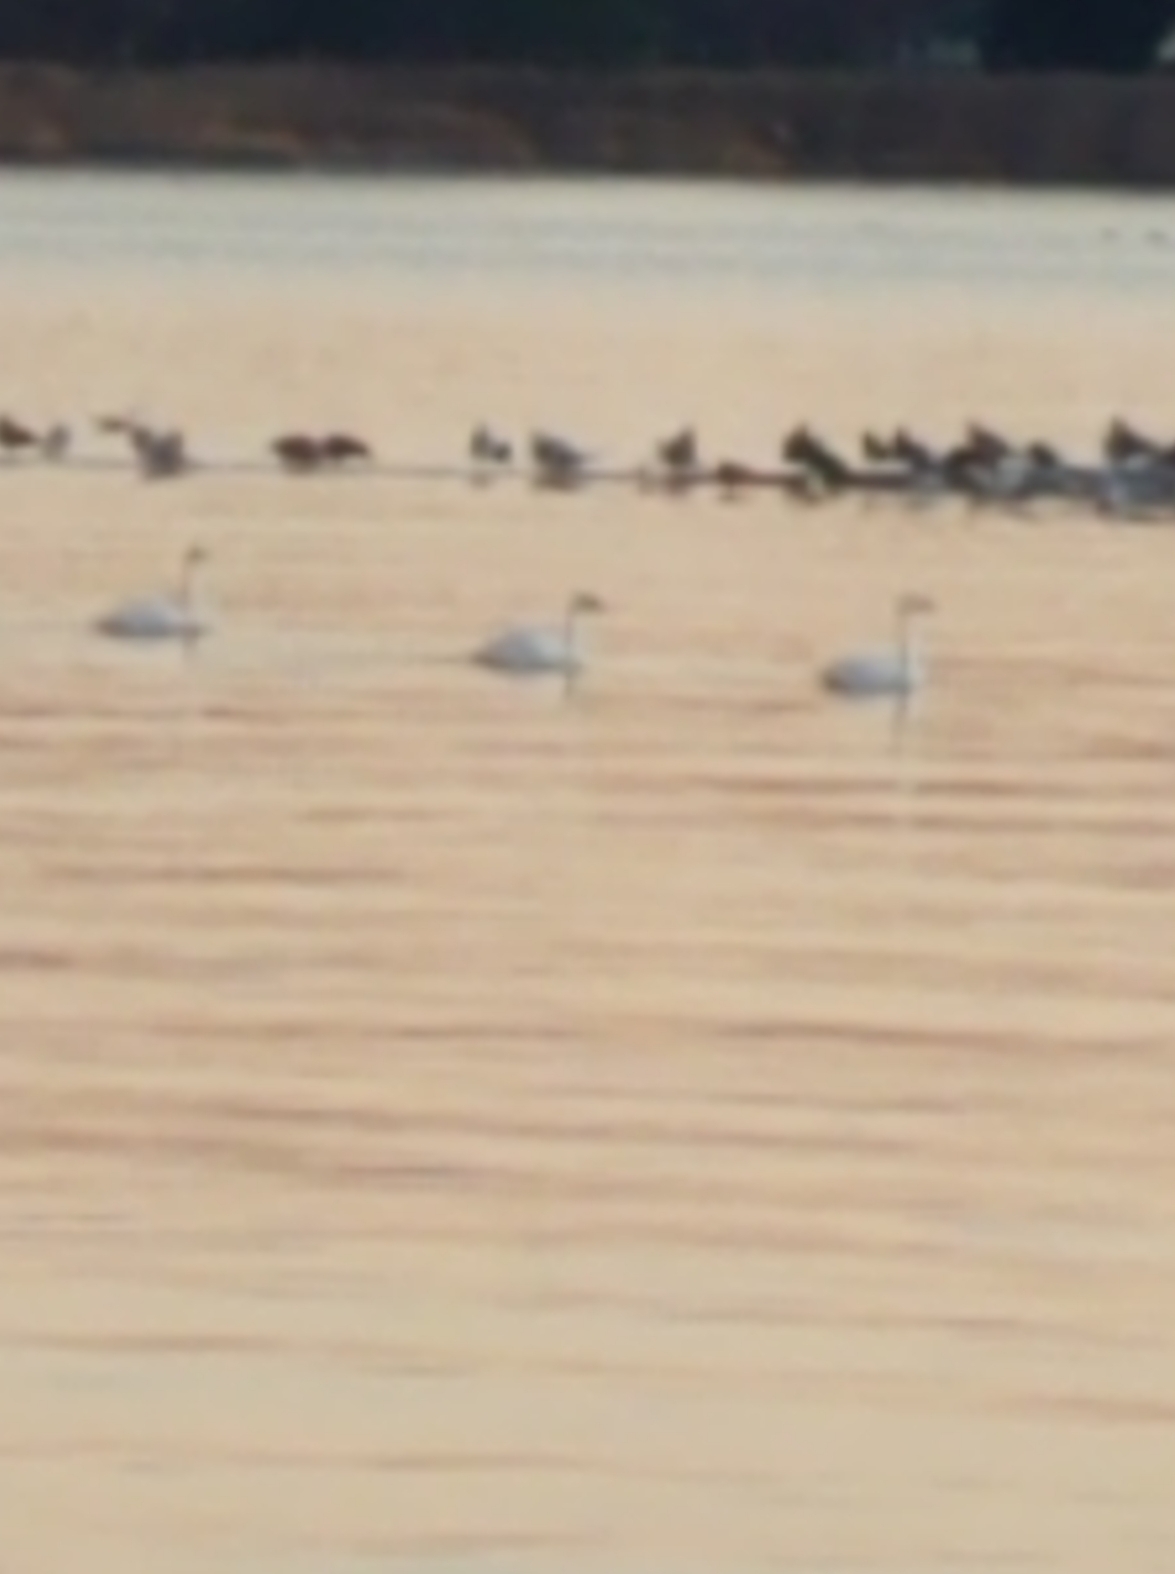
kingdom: Animalia
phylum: Chordata
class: Aves
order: Anseriformes
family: Anatidae
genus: Cygnus
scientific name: Cygnus columbianus
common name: Tundra swan
